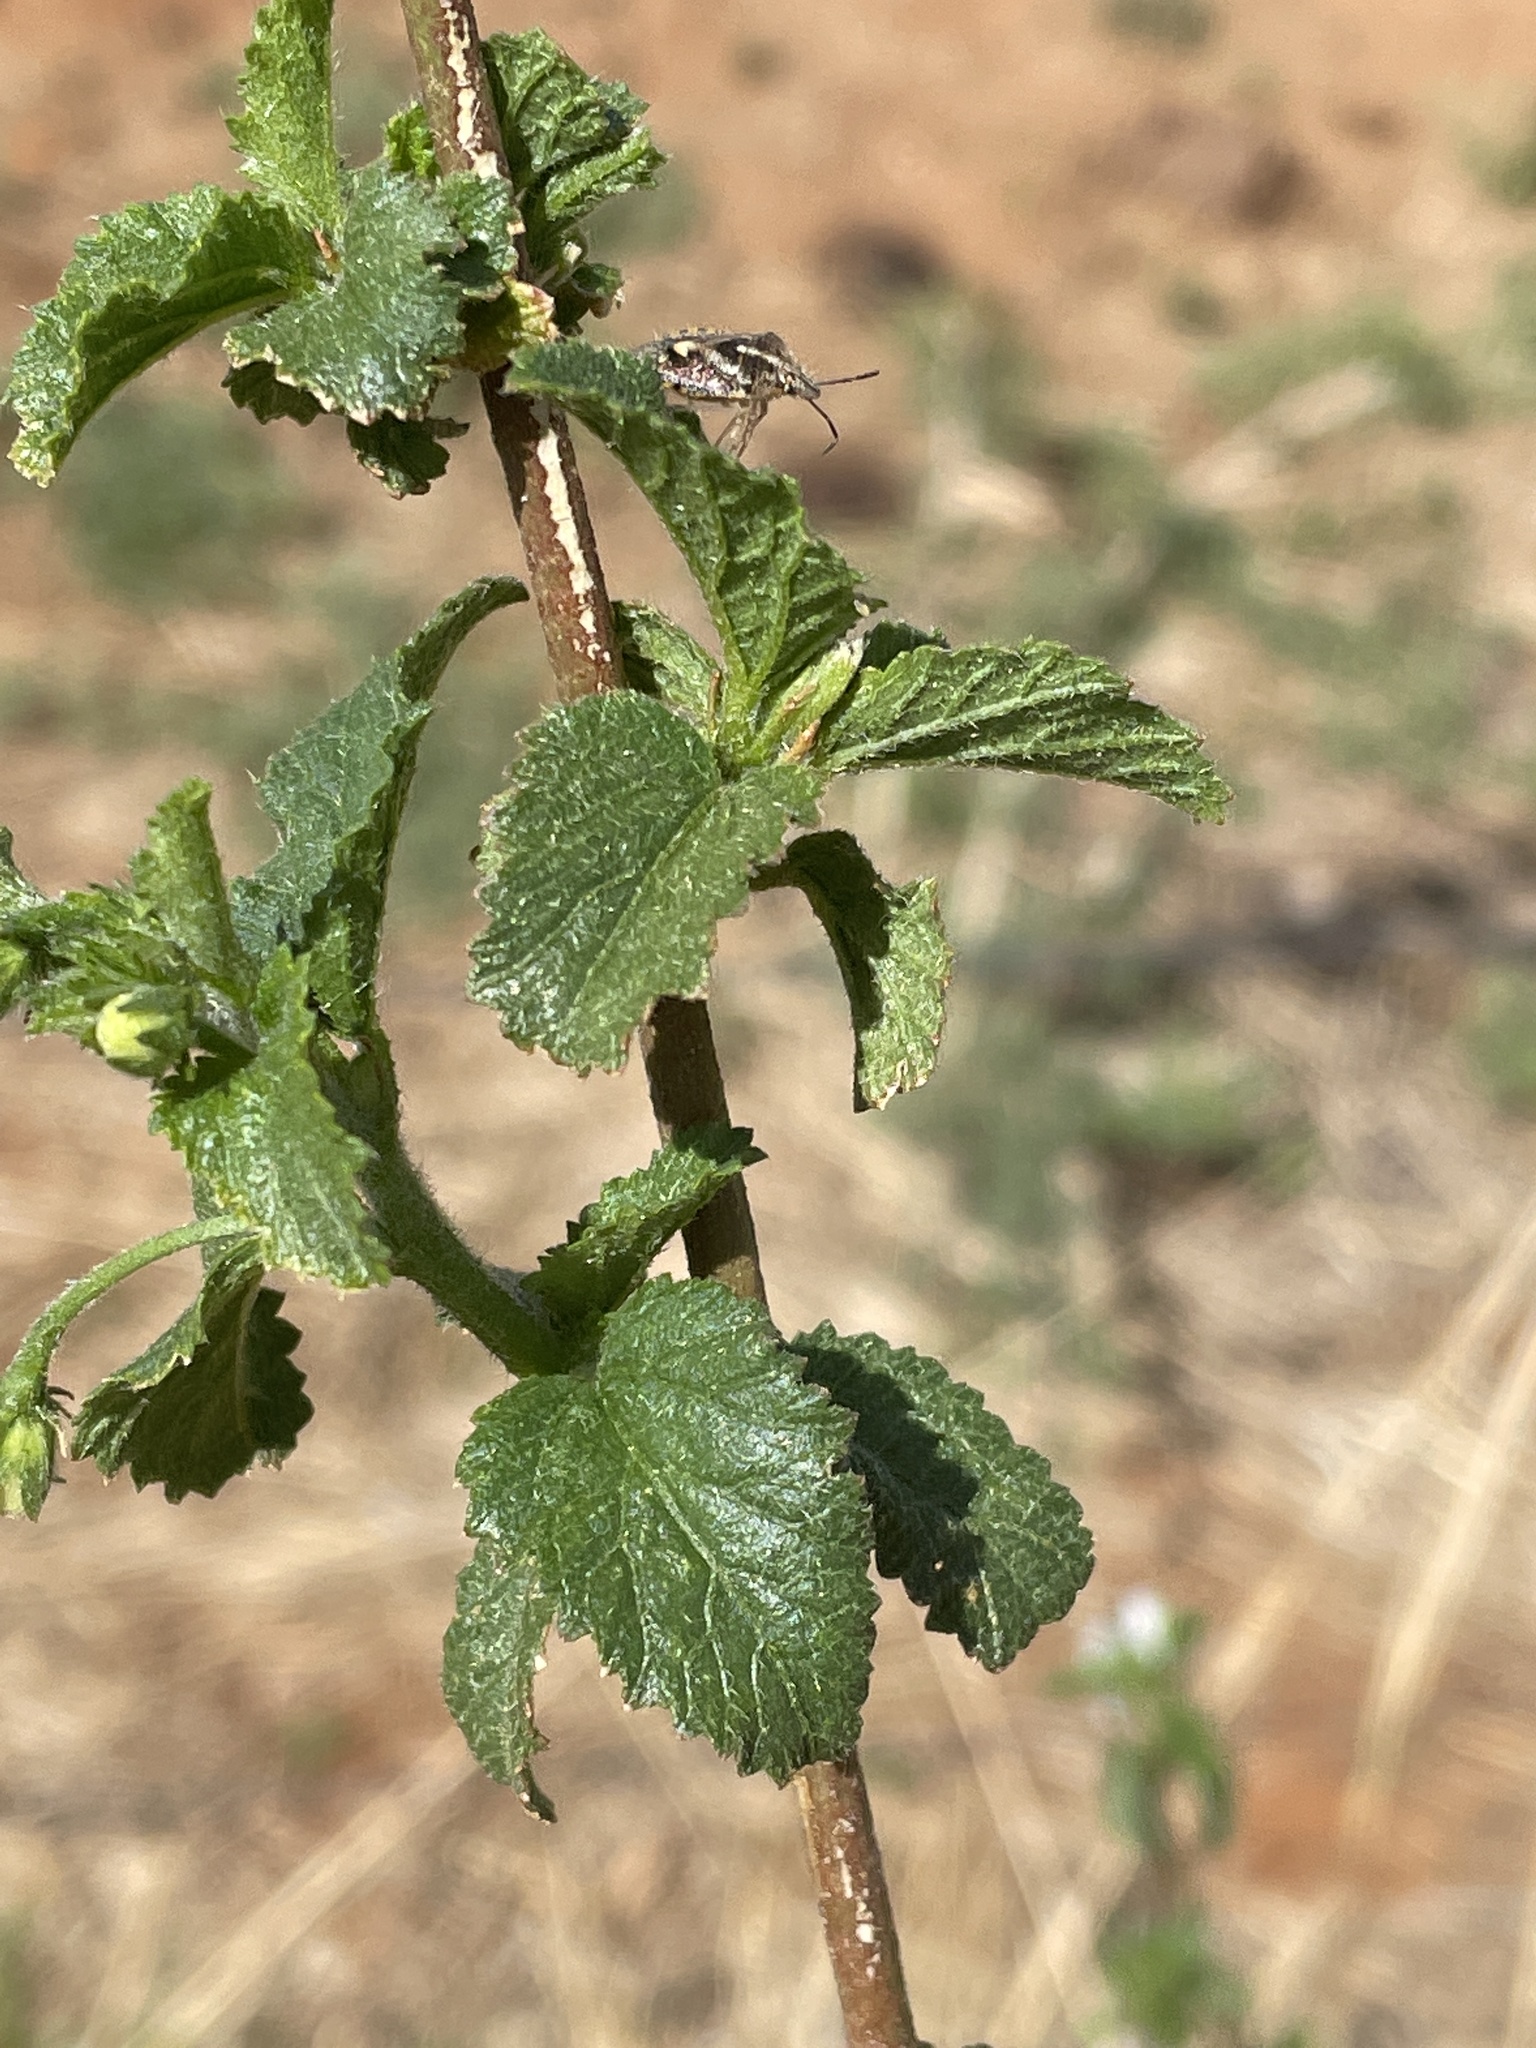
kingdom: Plantae
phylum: Tracheophyta
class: Magnoliopsida
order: Malvales
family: Malvaceae
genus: Hibiscus
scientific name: Hibiscus micranthus
